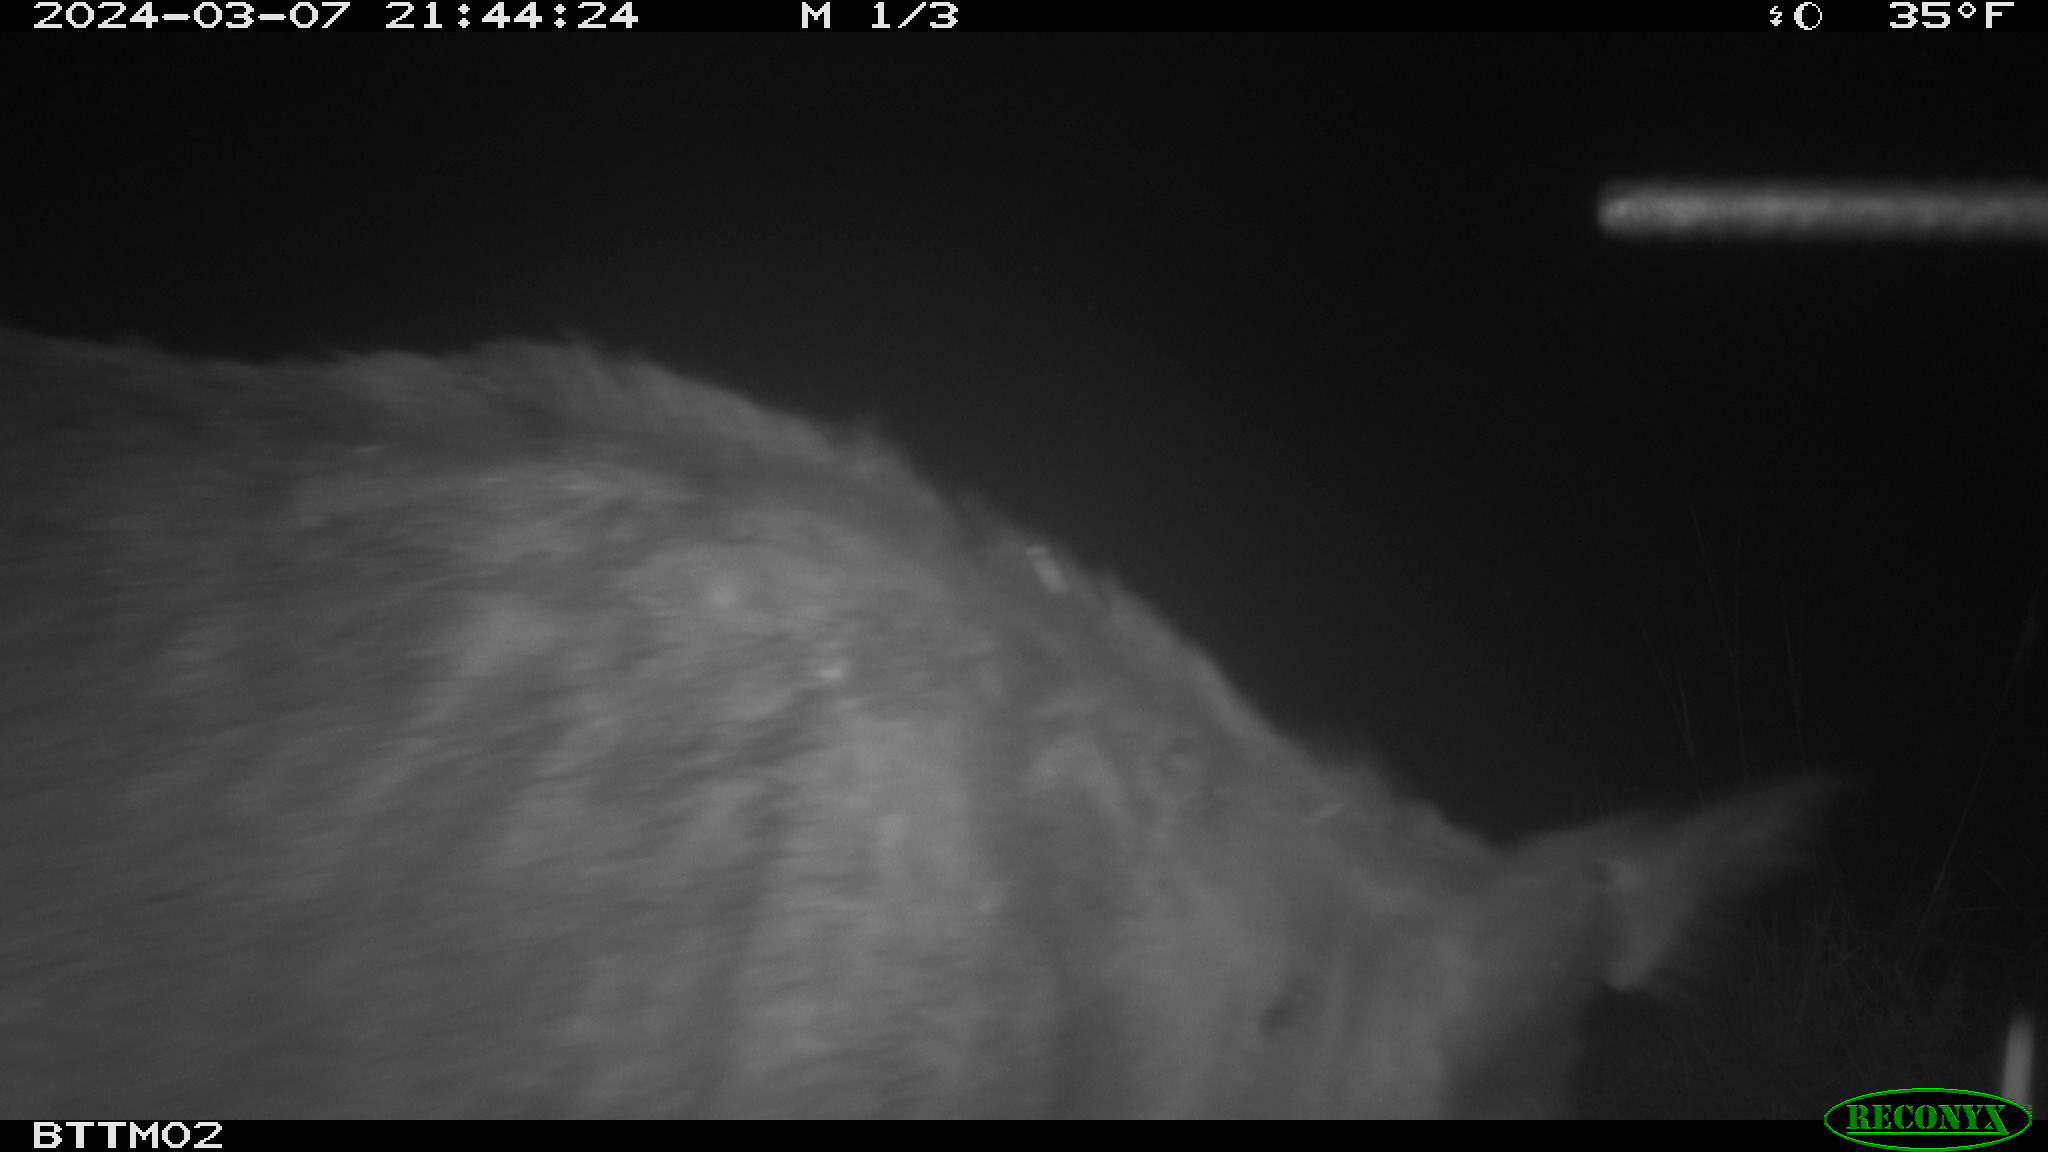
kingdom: Animalia
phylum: Chordata
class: Mammalia
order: Artiodactyla
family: Suidae
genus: Sus
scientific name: Sus scrofa
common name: Wild boar
